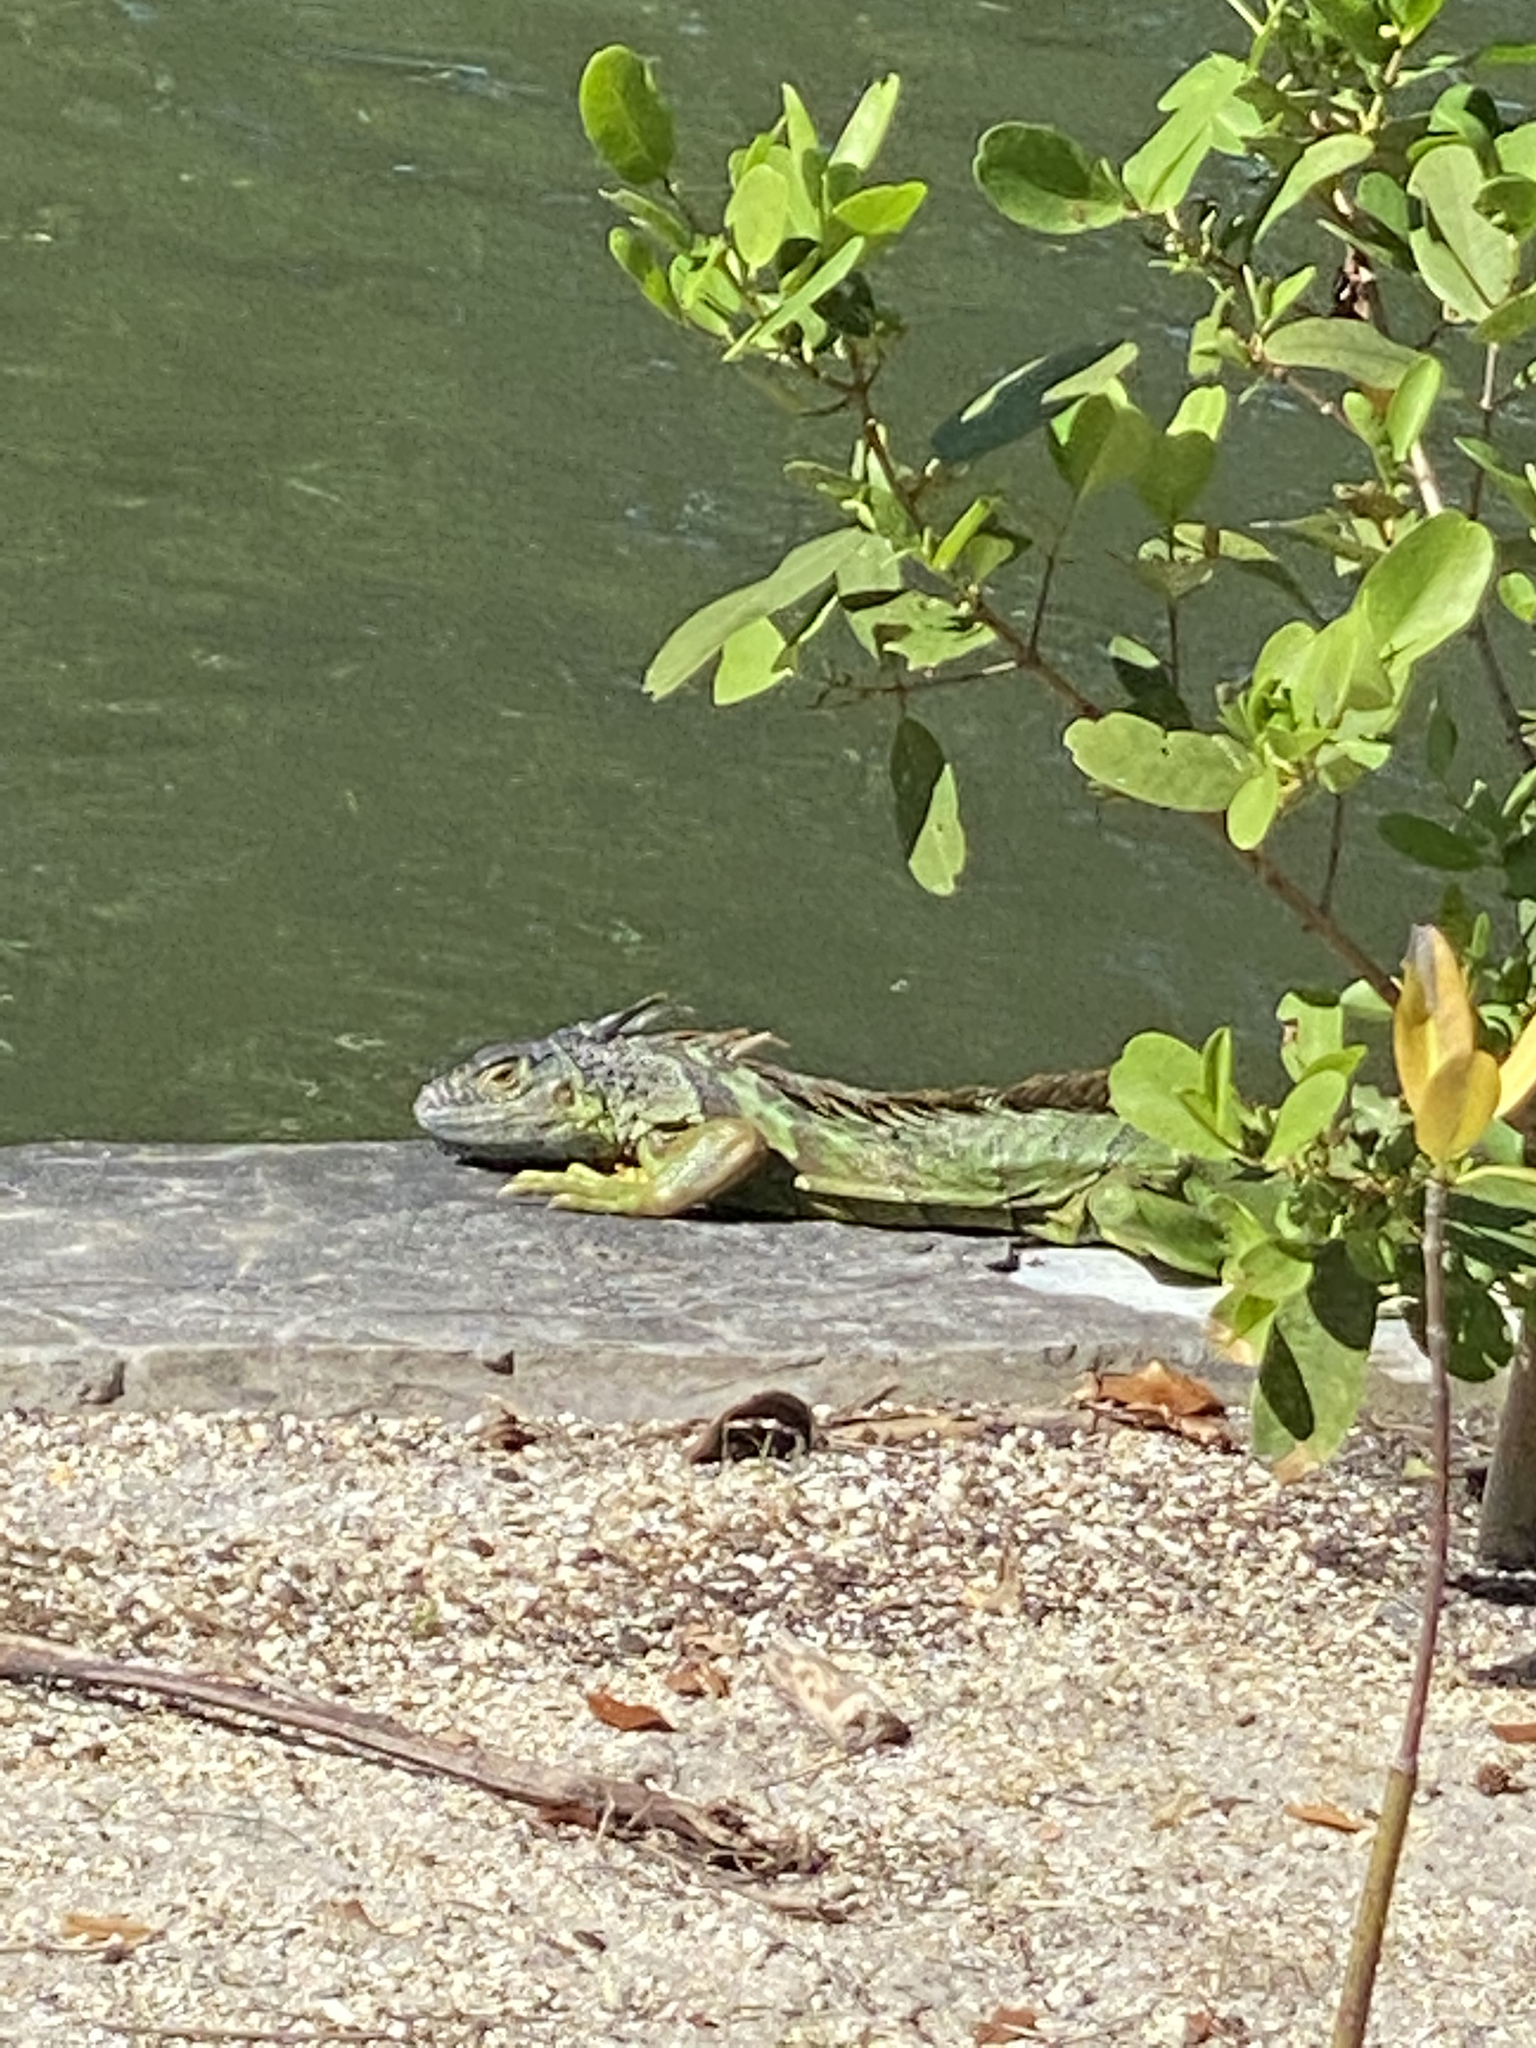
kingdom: Animalia
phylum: Chordata
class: Squamata
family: Iguanidae
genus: Iguana
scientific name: Iguana iguana
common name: Green iguana
